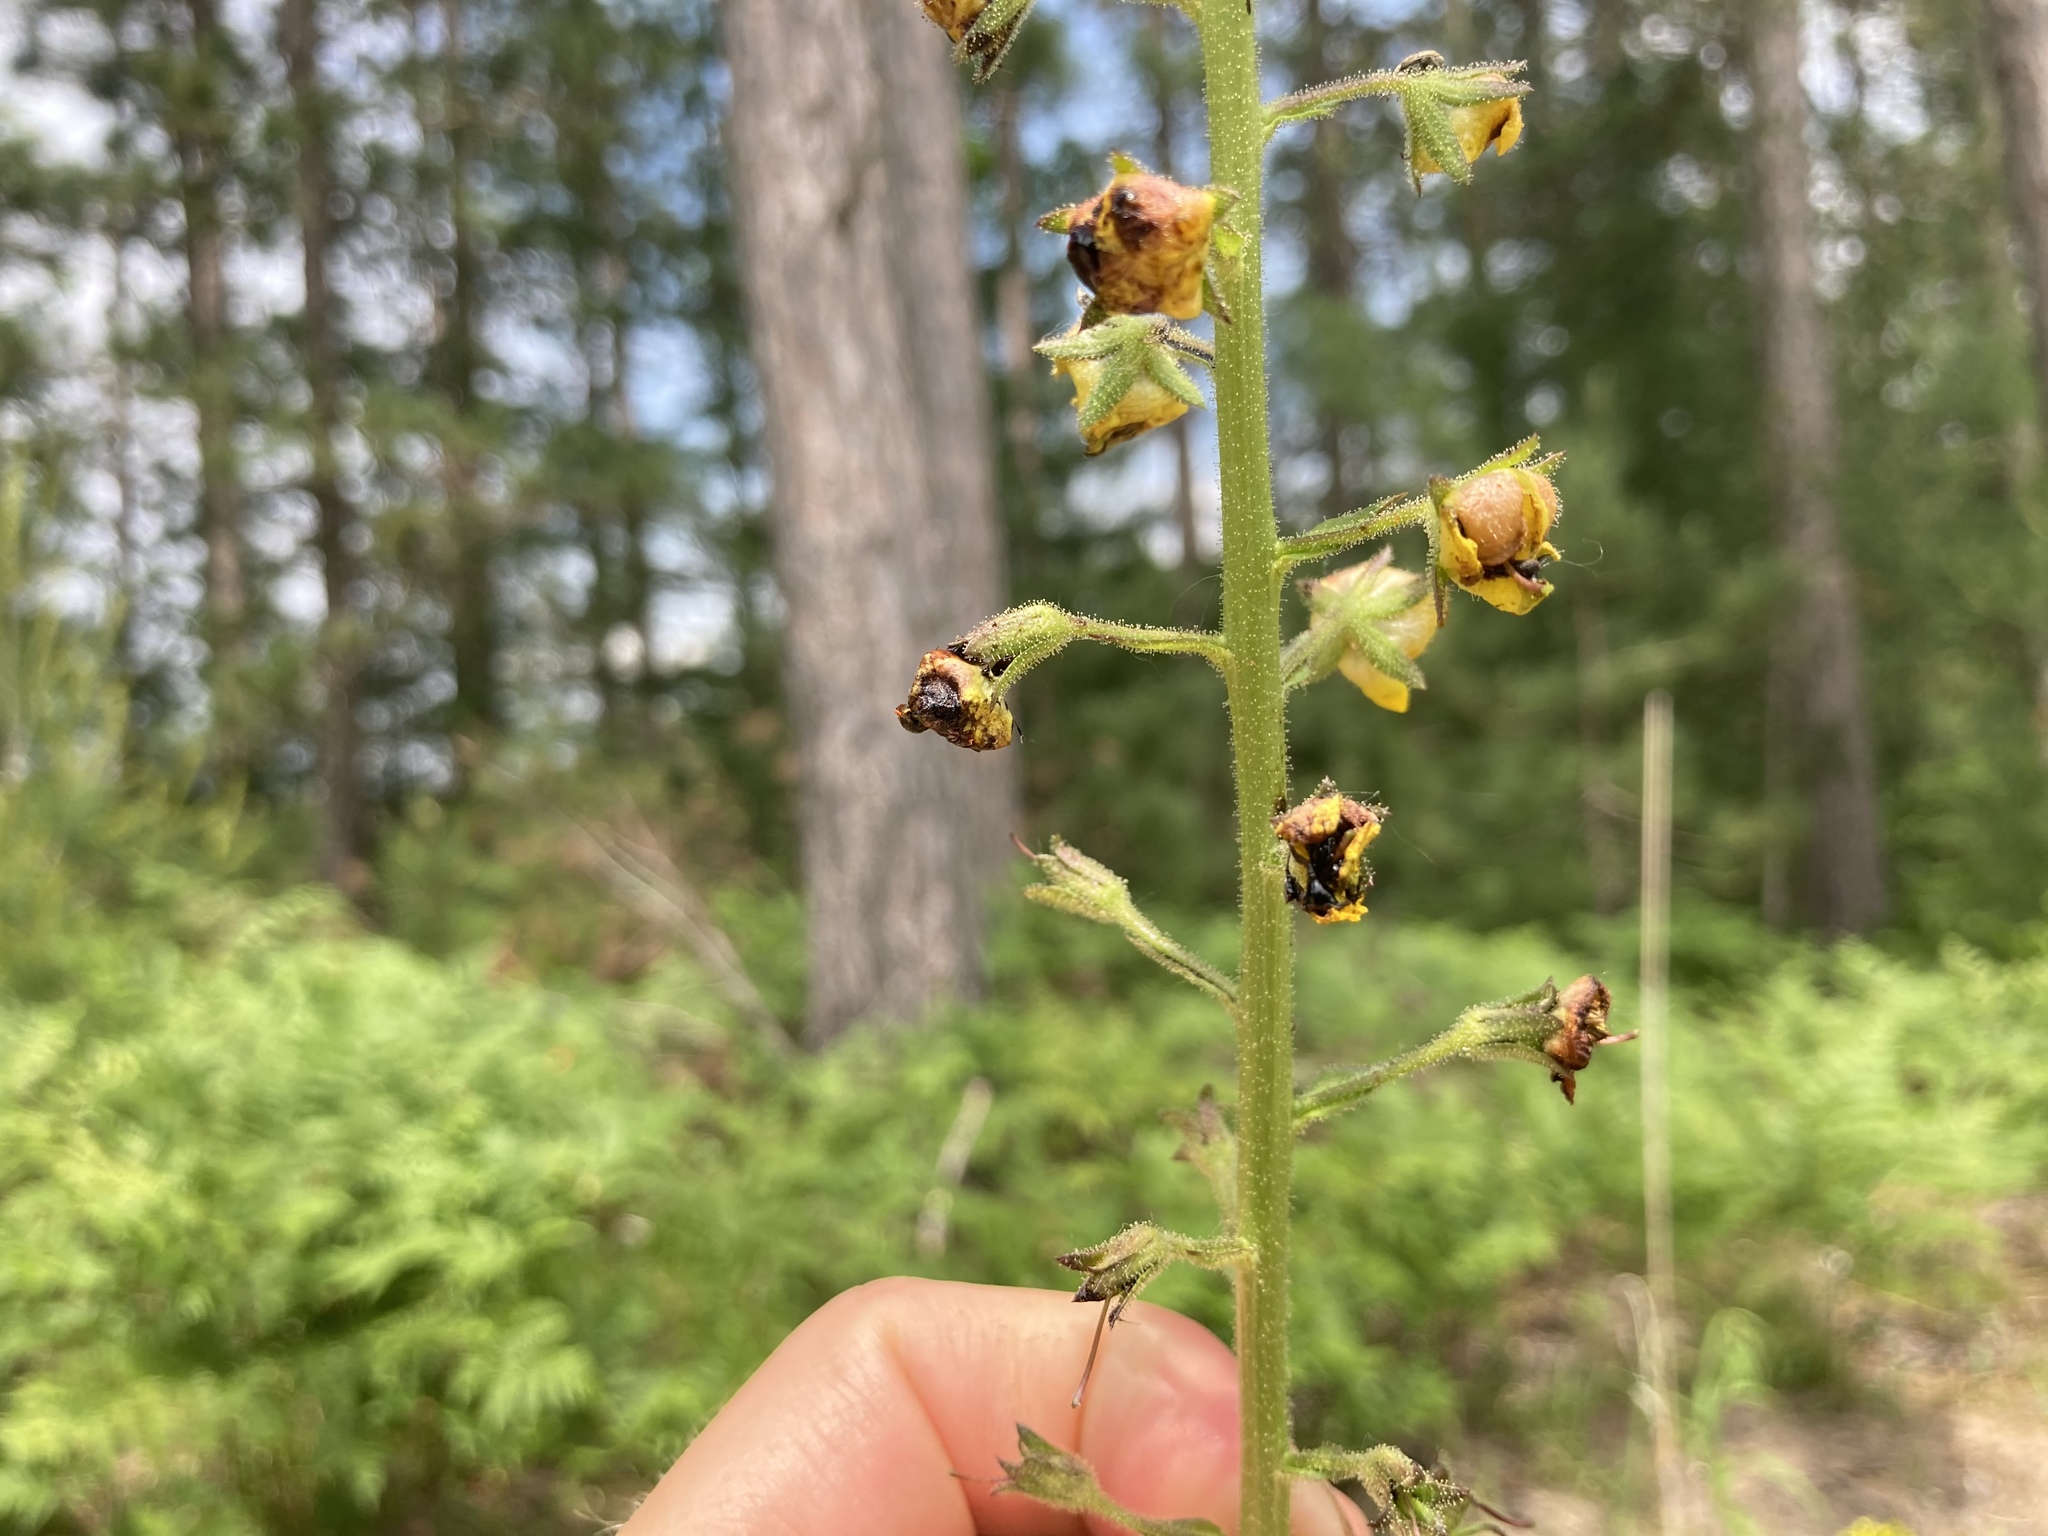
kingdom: Plantae
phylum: Tracheophyta
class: Magnoliopsida
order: Lamiales
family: Scrophulariaceae
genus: Verbascum
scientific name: Verbascum blattaria
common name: Moth mullein
